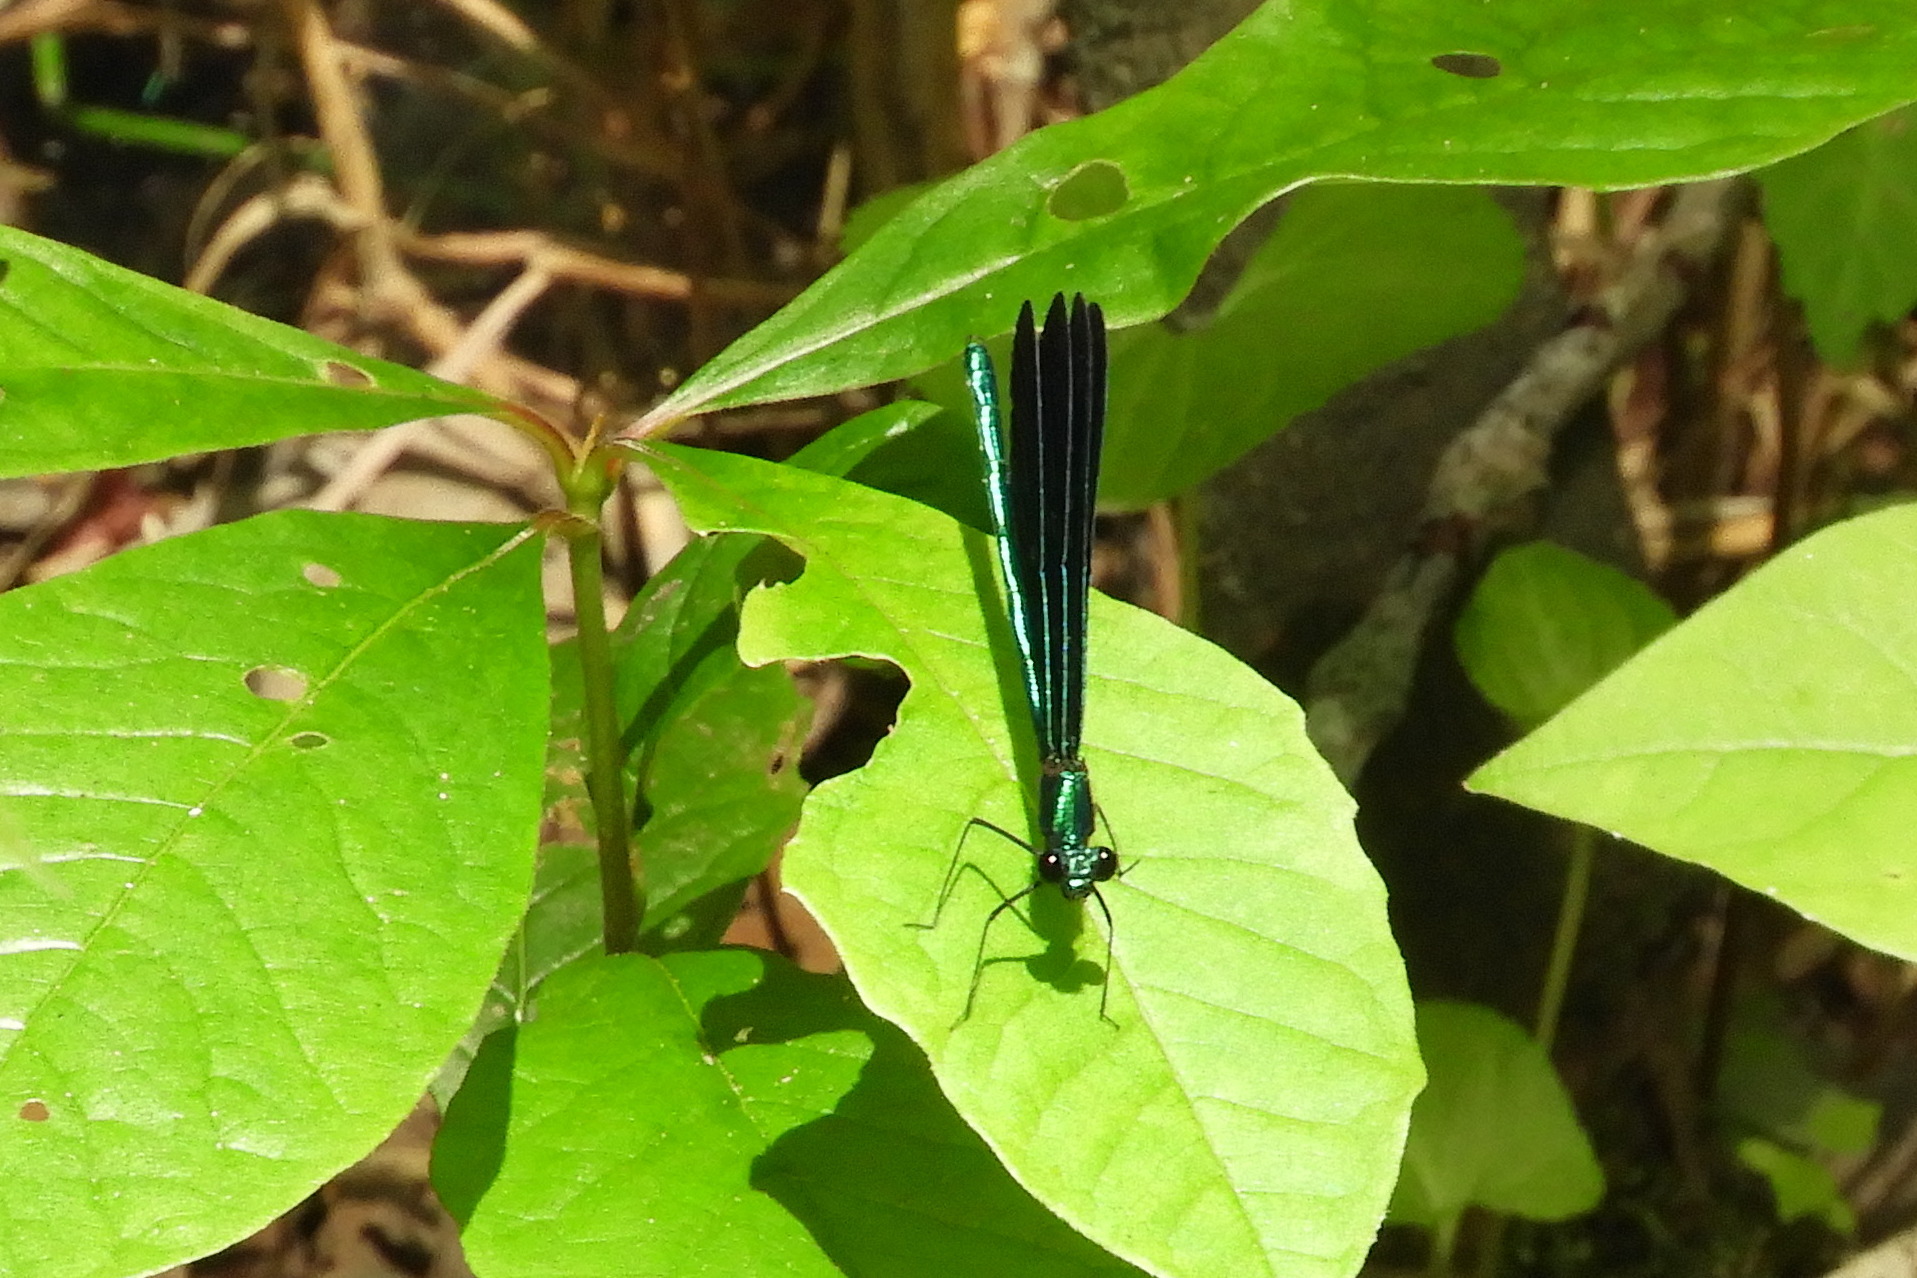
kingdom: Animalia
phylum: Arthropoda
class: Insecta
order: Odonata
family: Calopterygidae
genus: Calopteryx
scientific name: Calopteryx maculata
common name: Ebony jewelwing
